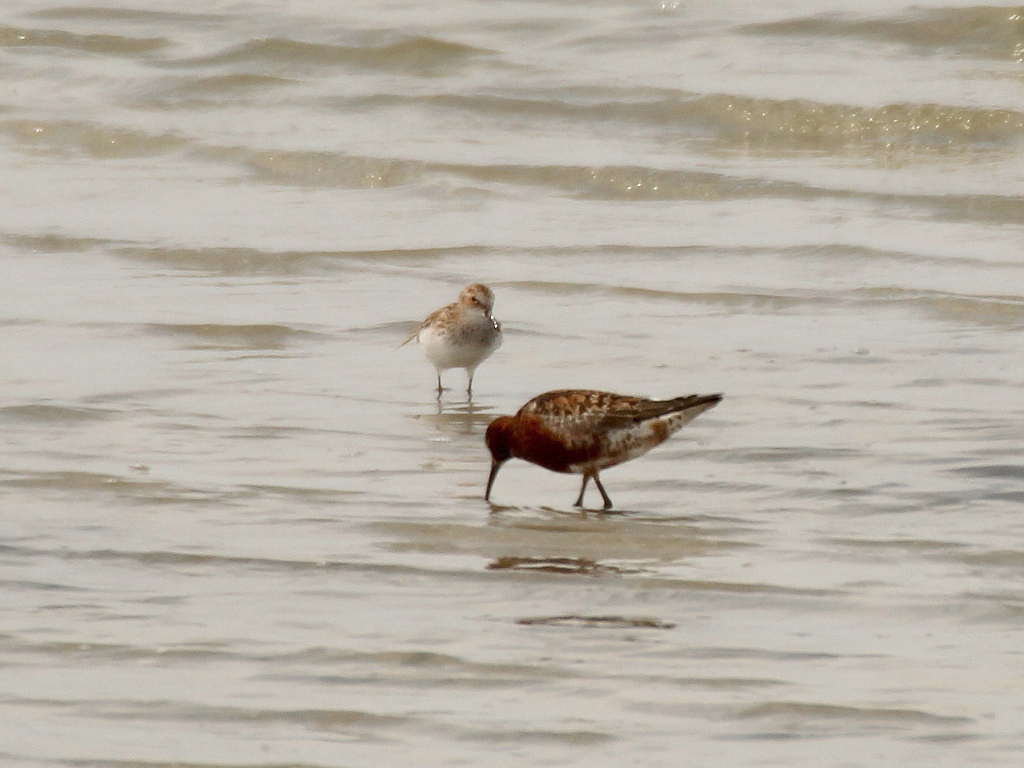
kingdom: Animalia
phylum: Chordata
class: Aves
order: Charadriiformes
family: Scolopacidae
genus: Calidris
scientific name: Calidris ferruginea
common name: Curlew sandpiper
